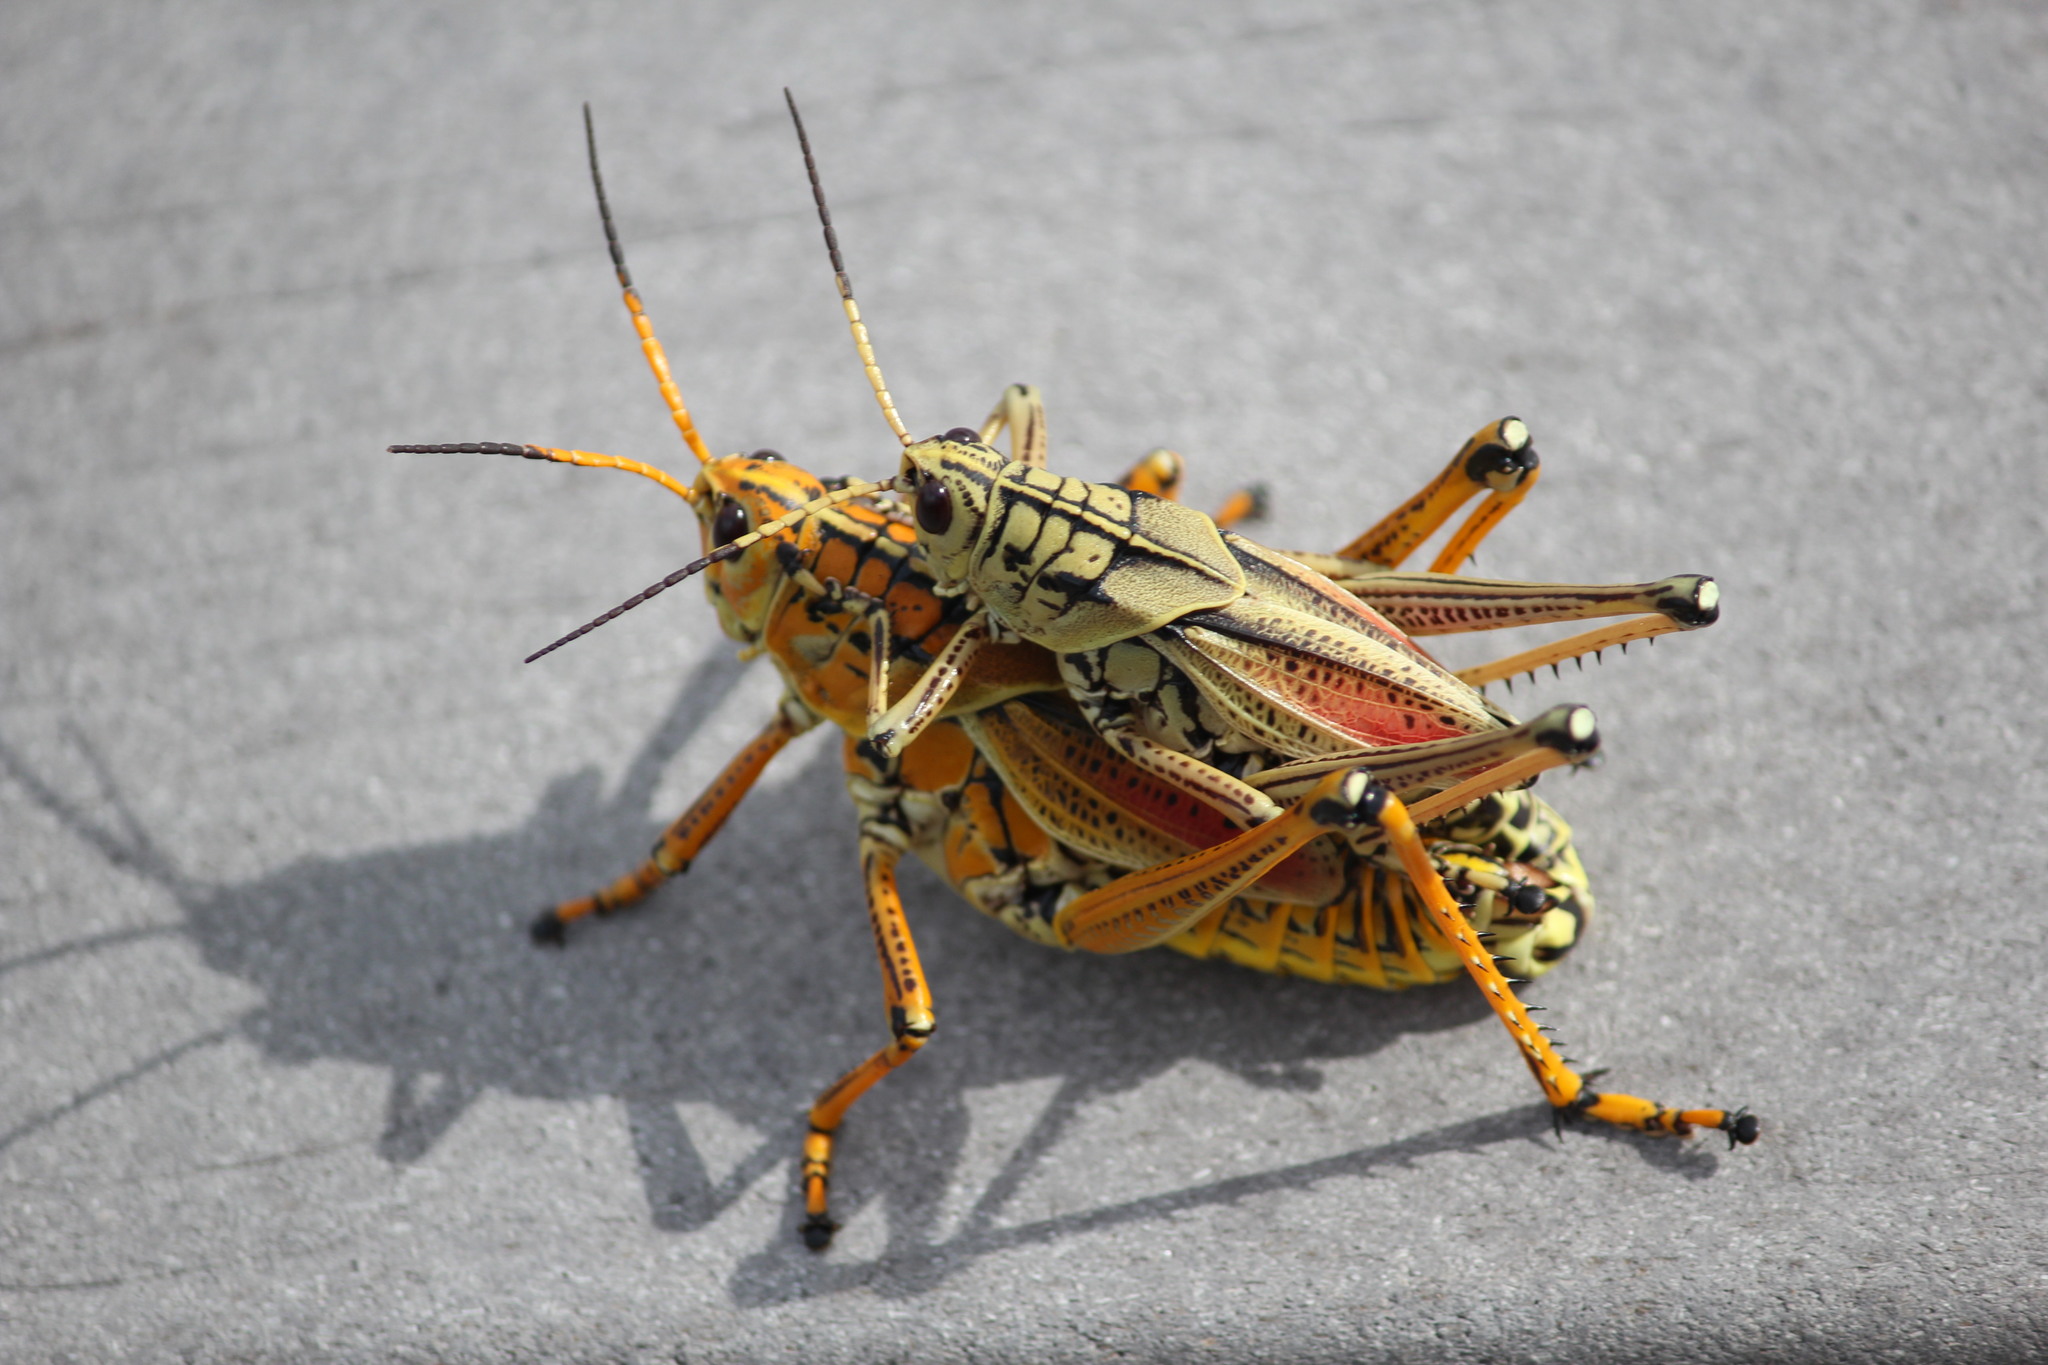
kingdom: Animalia
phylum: Arthropoda
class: Insecta
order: Orthoptera
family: Romaleidae
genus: Romalea
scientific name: Romalea microptera
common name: Eastern lubber grasshopper
